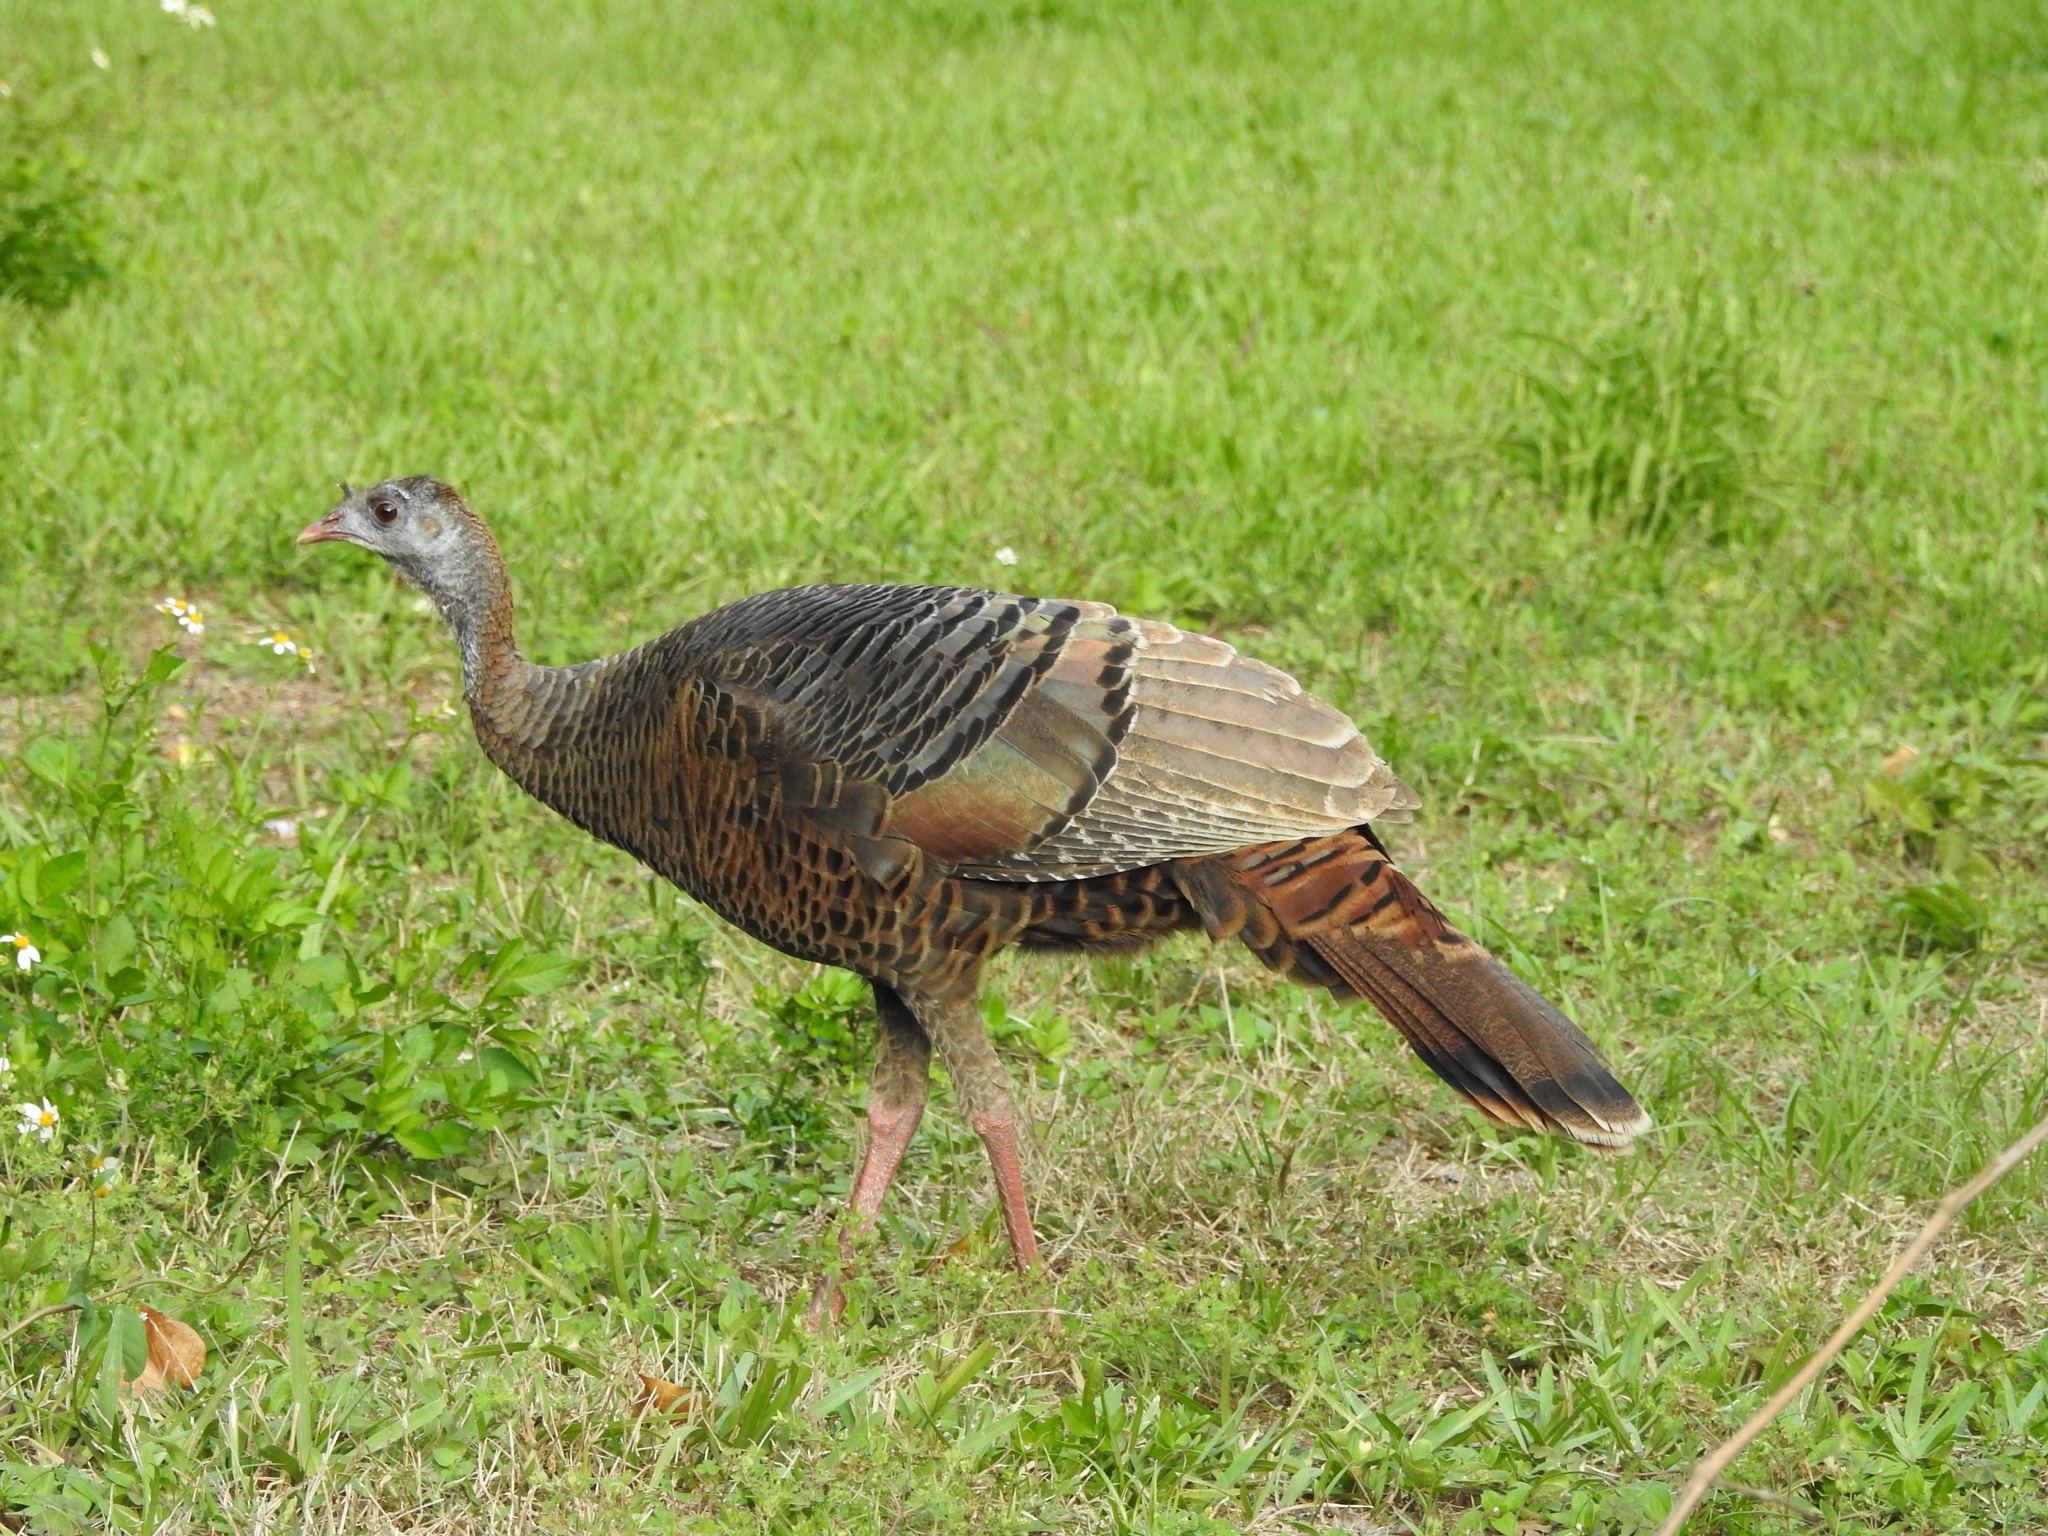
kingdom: Animalia
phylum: Chordata
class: Aves
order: Galliformes
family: Phasianidae
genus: Meleagris
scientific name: Meleagris gallopavo
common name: Wild turkey
